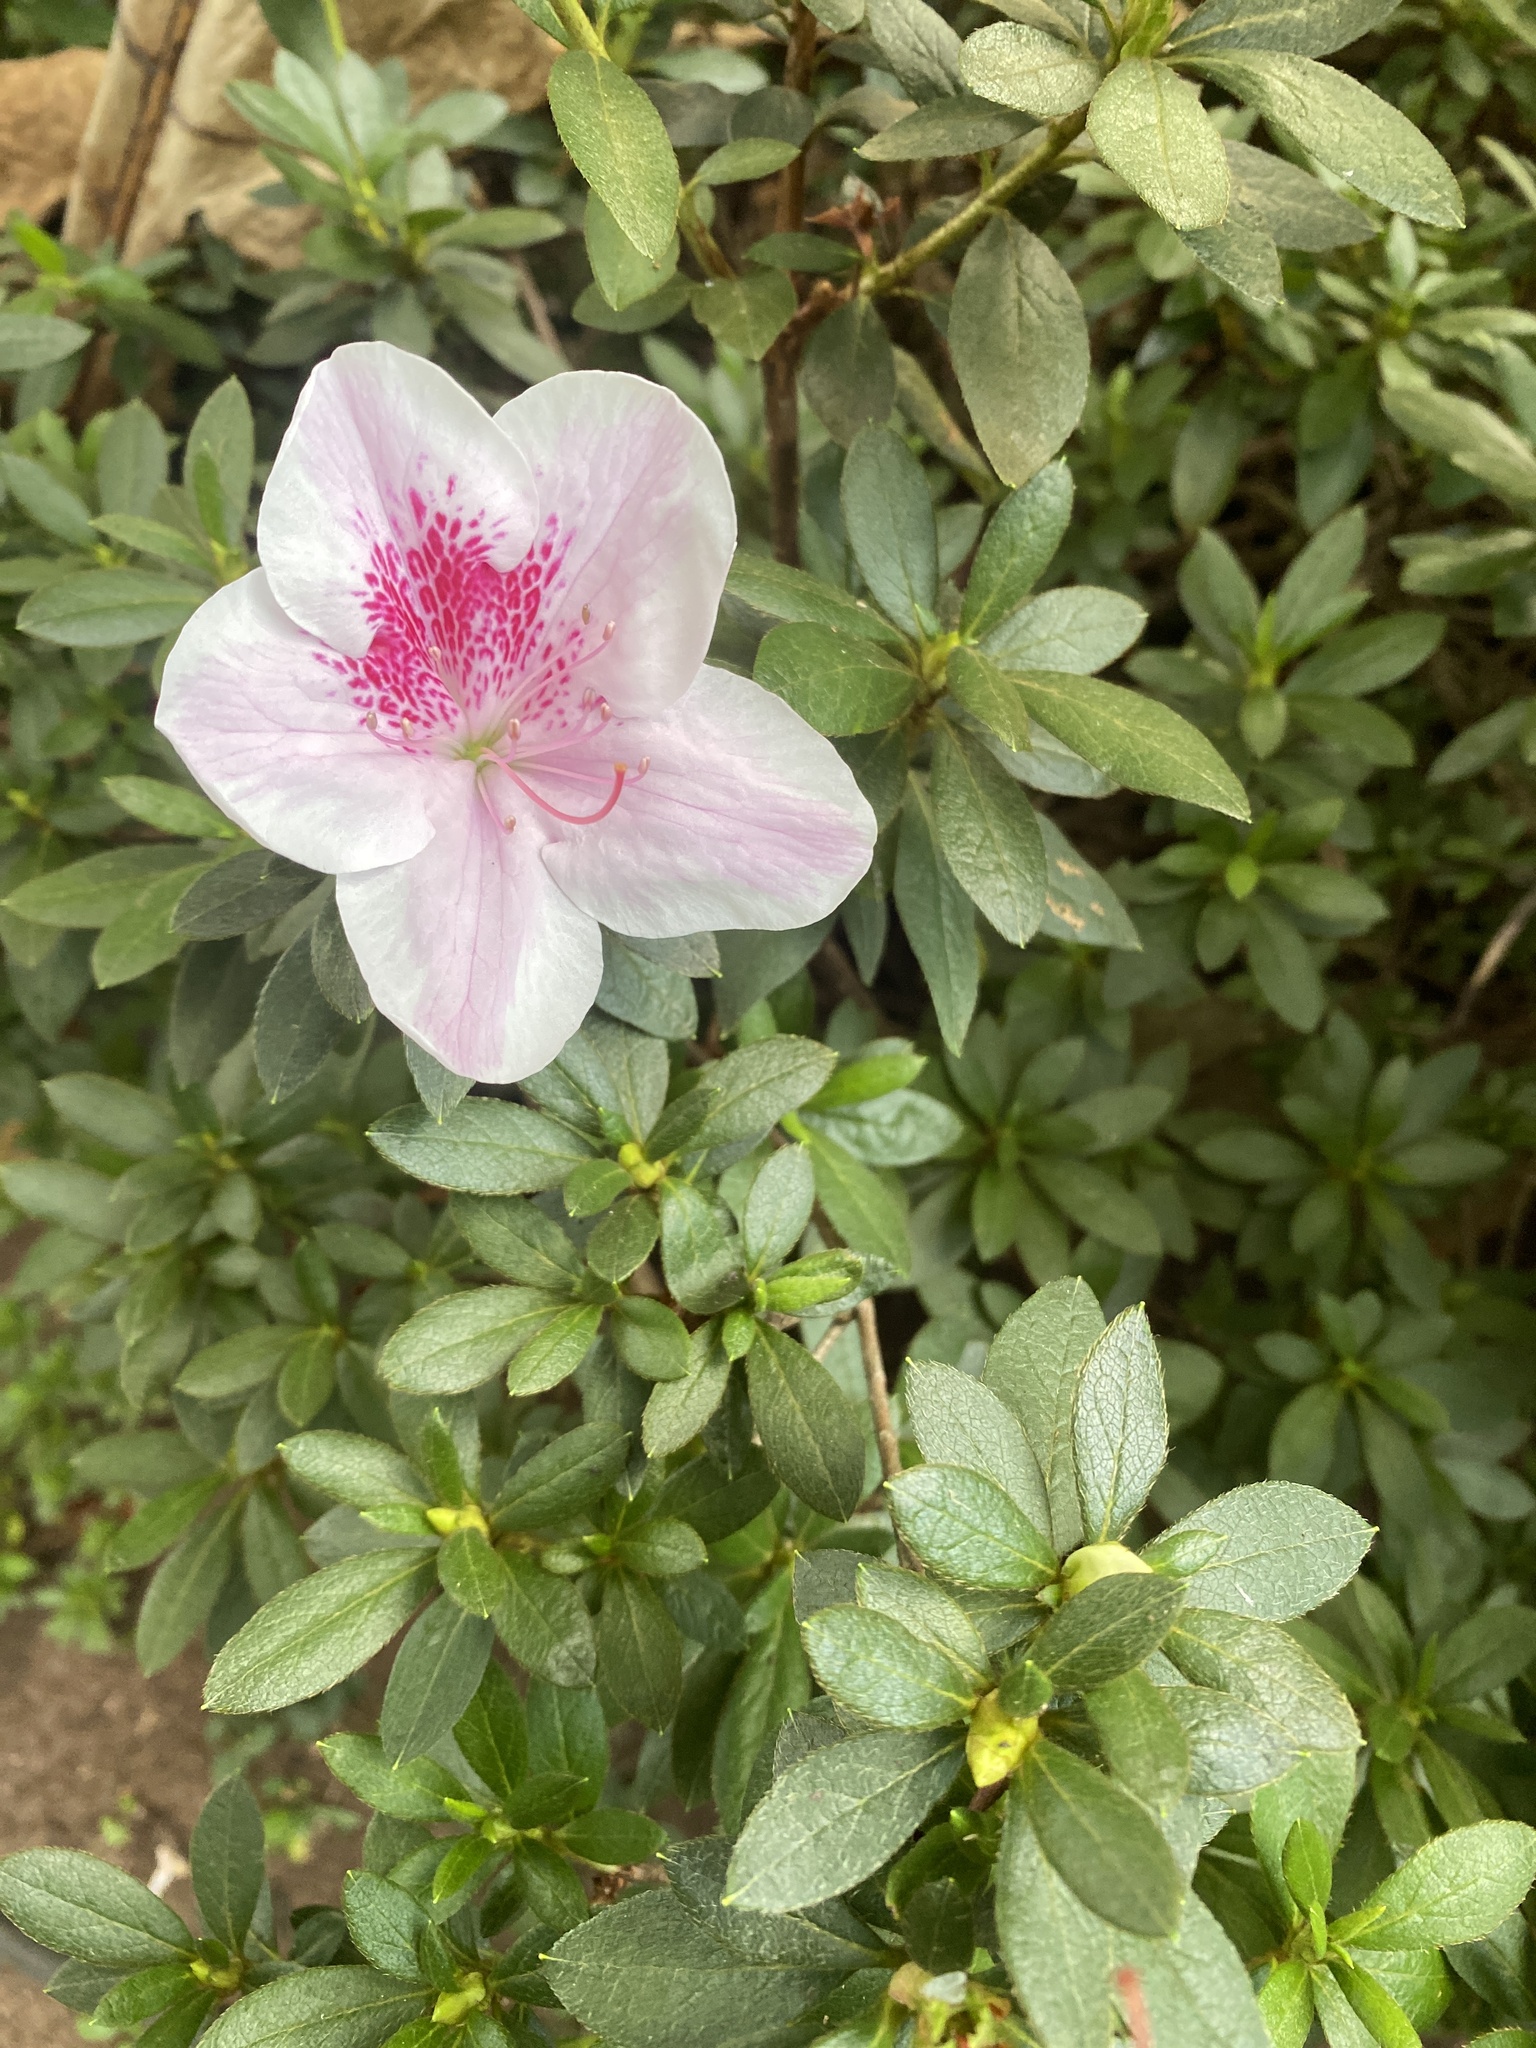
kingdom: Plantae
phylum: Tracheophyta
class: Magnoliopsida
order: Ericales
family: Ericaceae
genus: Rhododendron
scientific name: Rhododendron indicum
